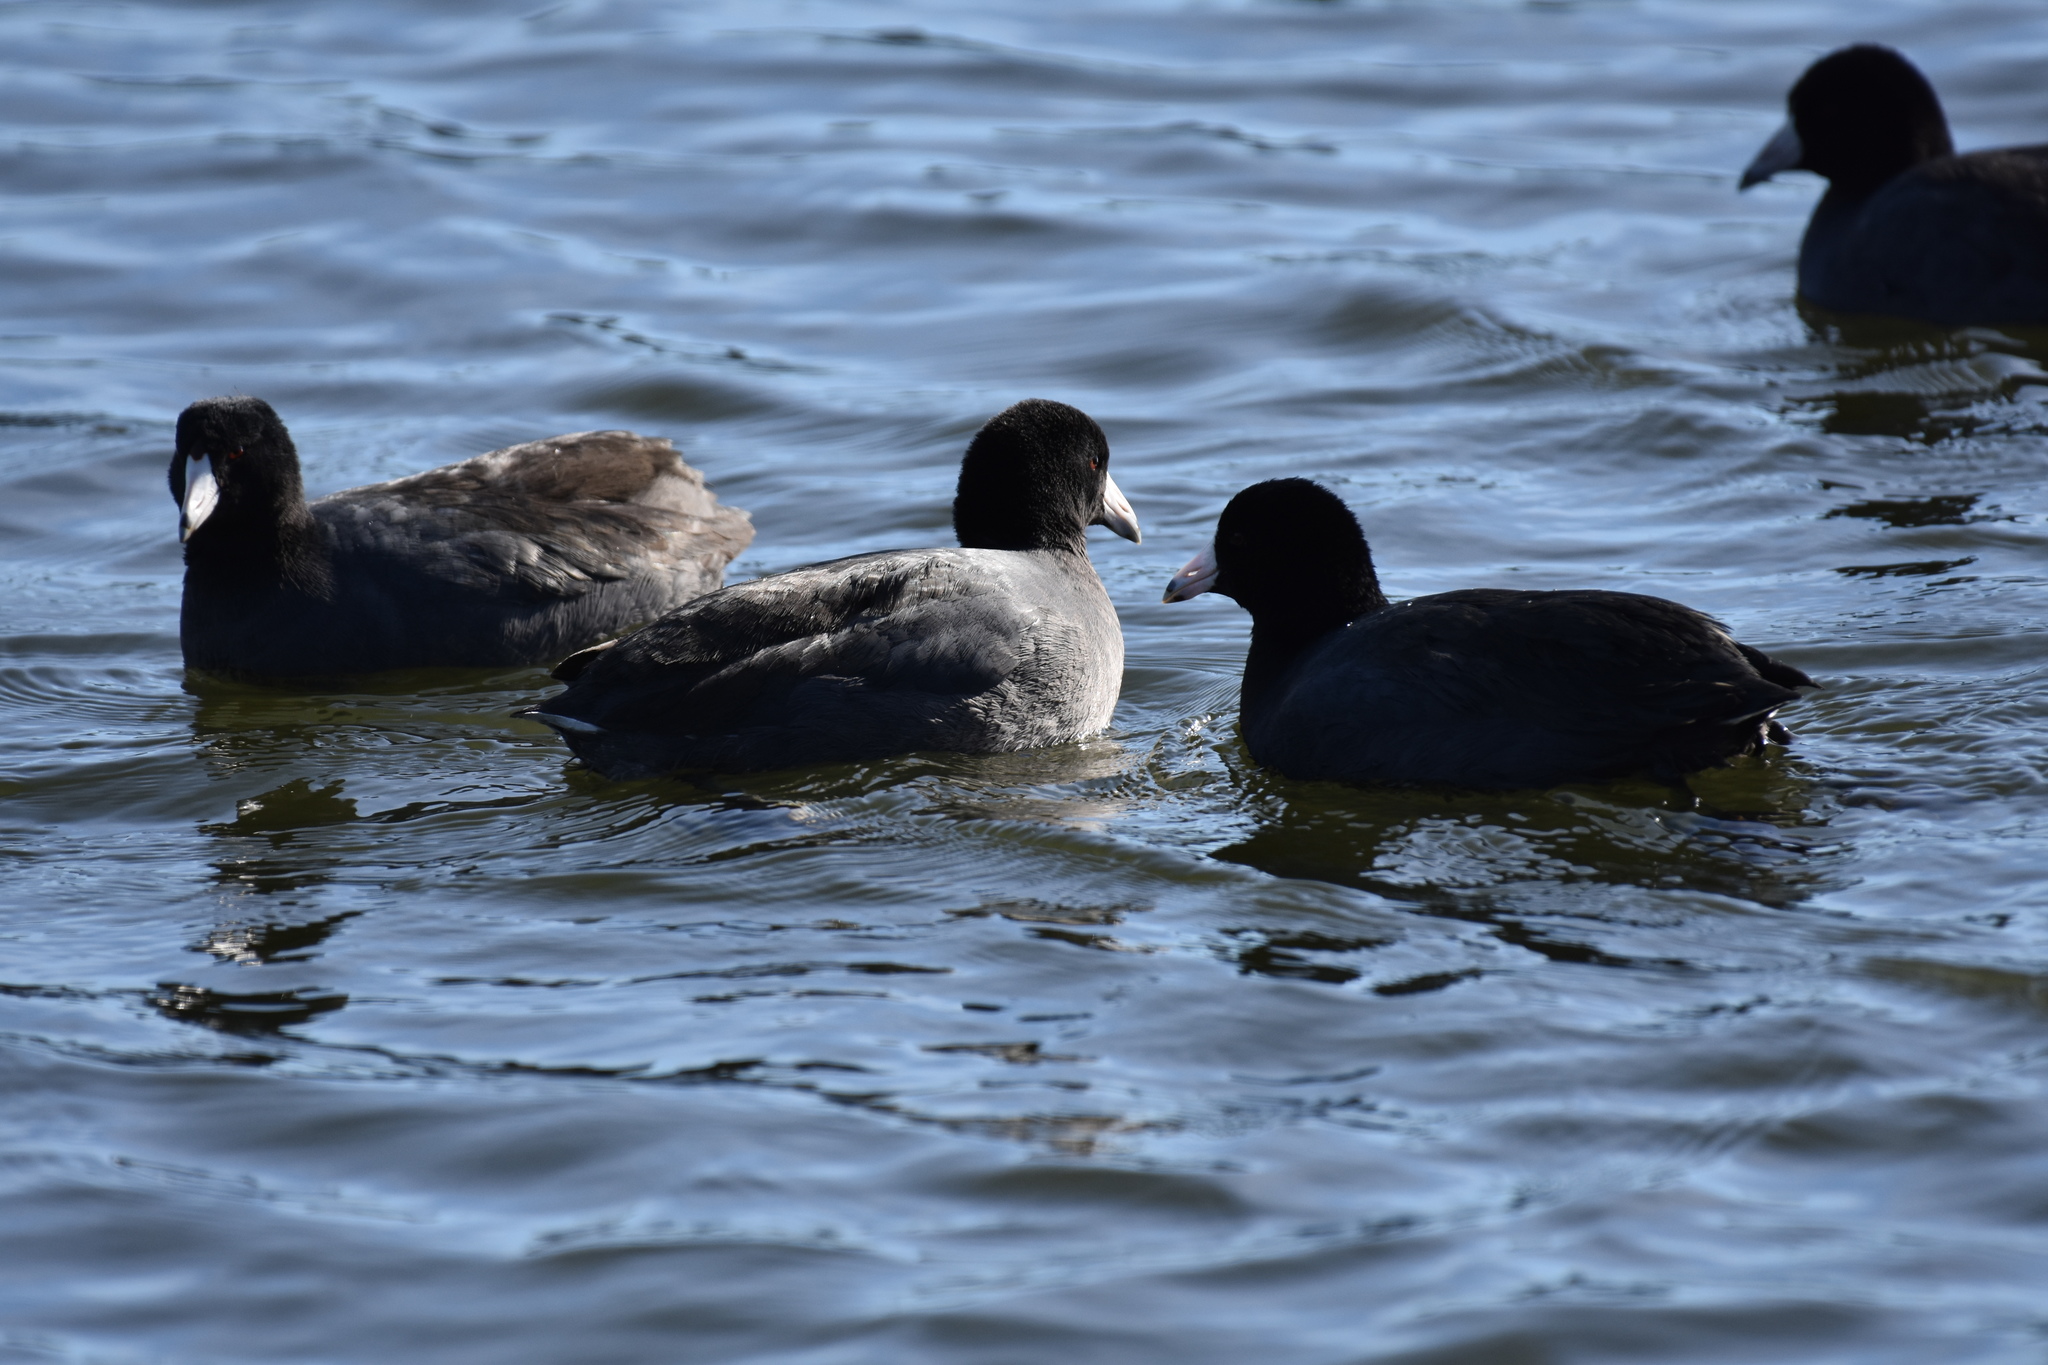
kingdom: Animalia
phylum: Chordata
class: Aves
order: Gruiformes
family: Rallidae
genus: Fulica
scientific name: Fulica americana
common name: American coot
